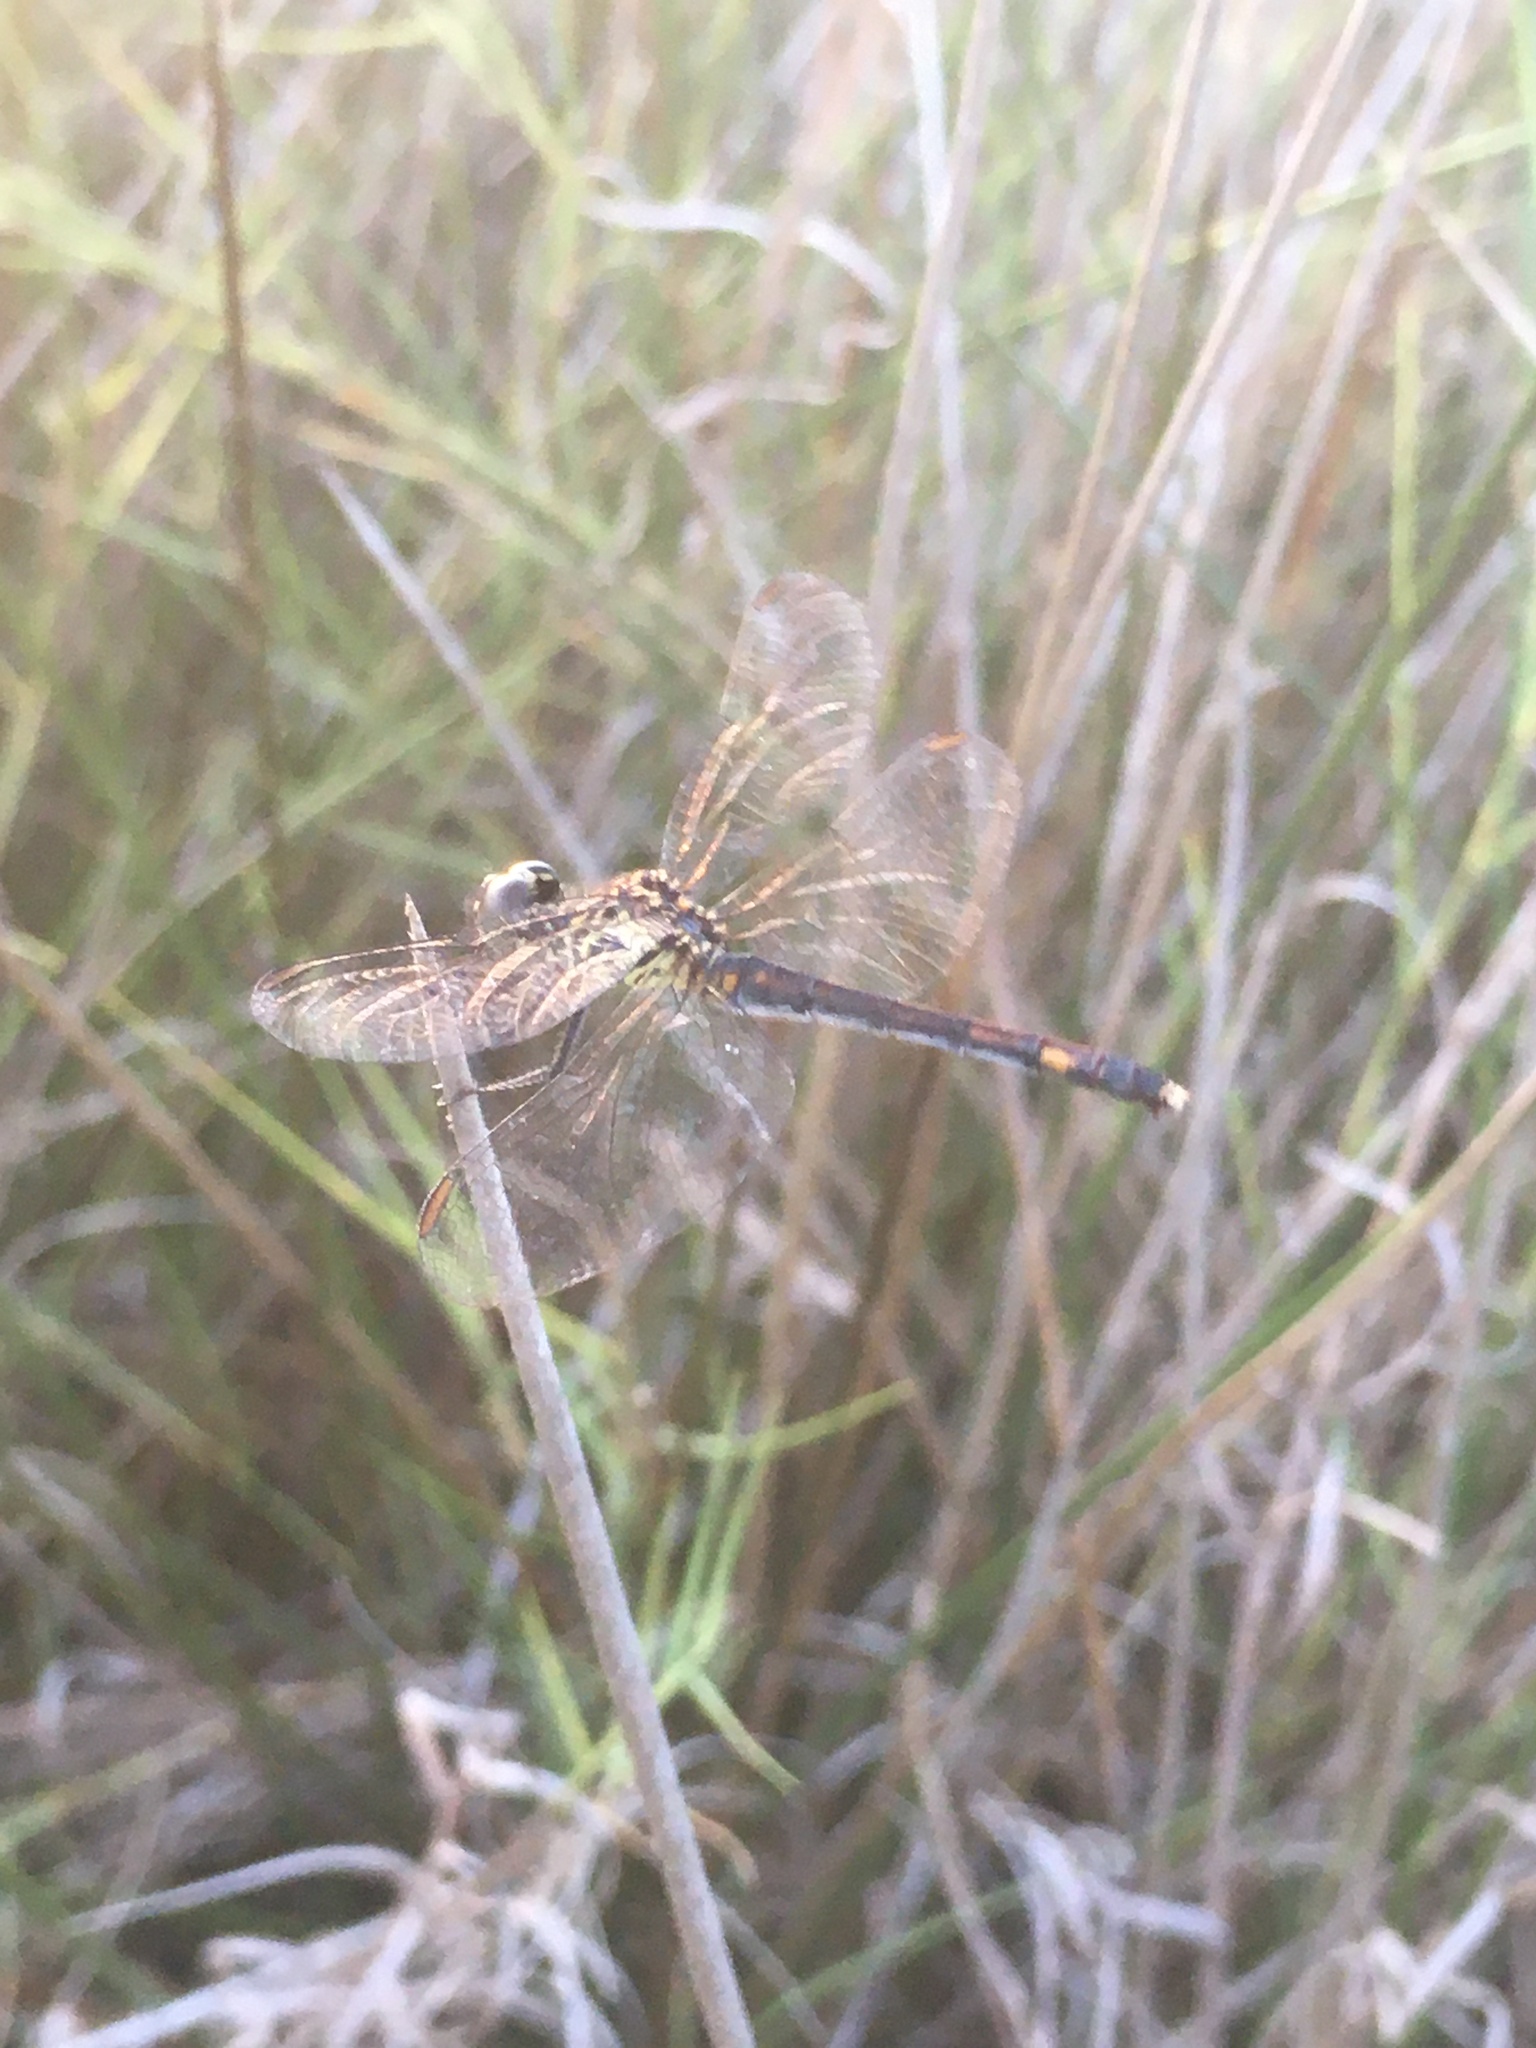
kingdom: Animalia
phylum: Arthropoda
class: Insecta
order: Odonata
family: Libellulidae
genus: Erythrodiplax
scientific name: Erythrodiplax berenice
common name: Seaside dragonlet
